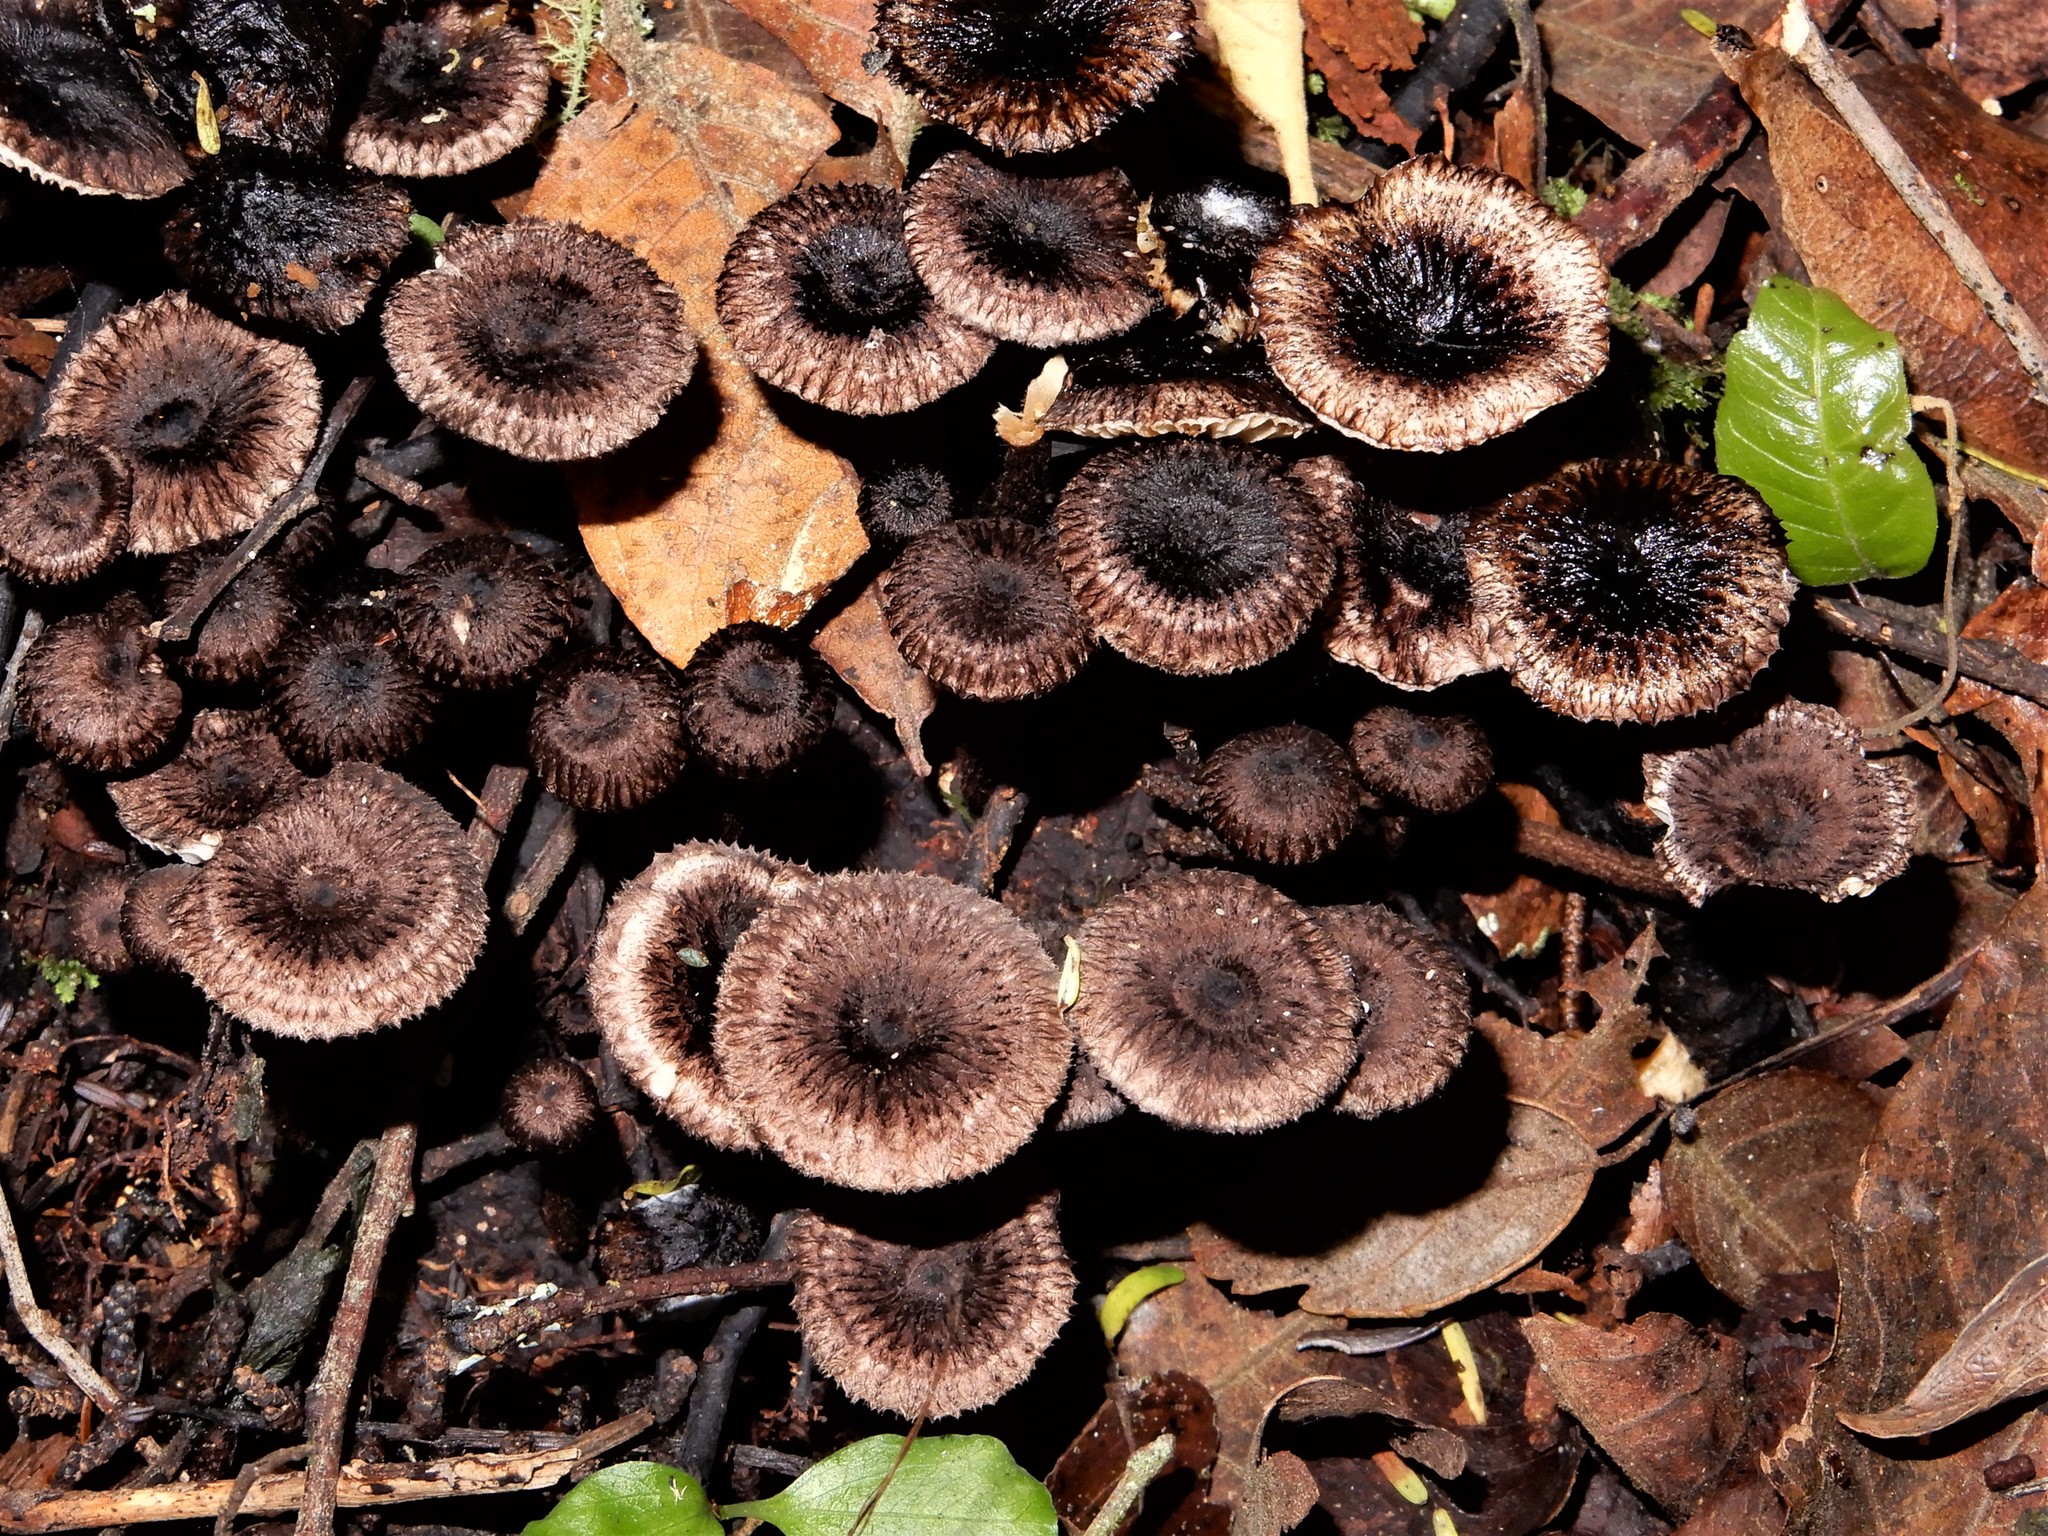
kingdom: Fungi
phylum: Basidiomycota
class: Agaricomycetes
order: Agaricales
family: Marasmiaceae
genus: Crinipellis
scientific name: Crinipellis
